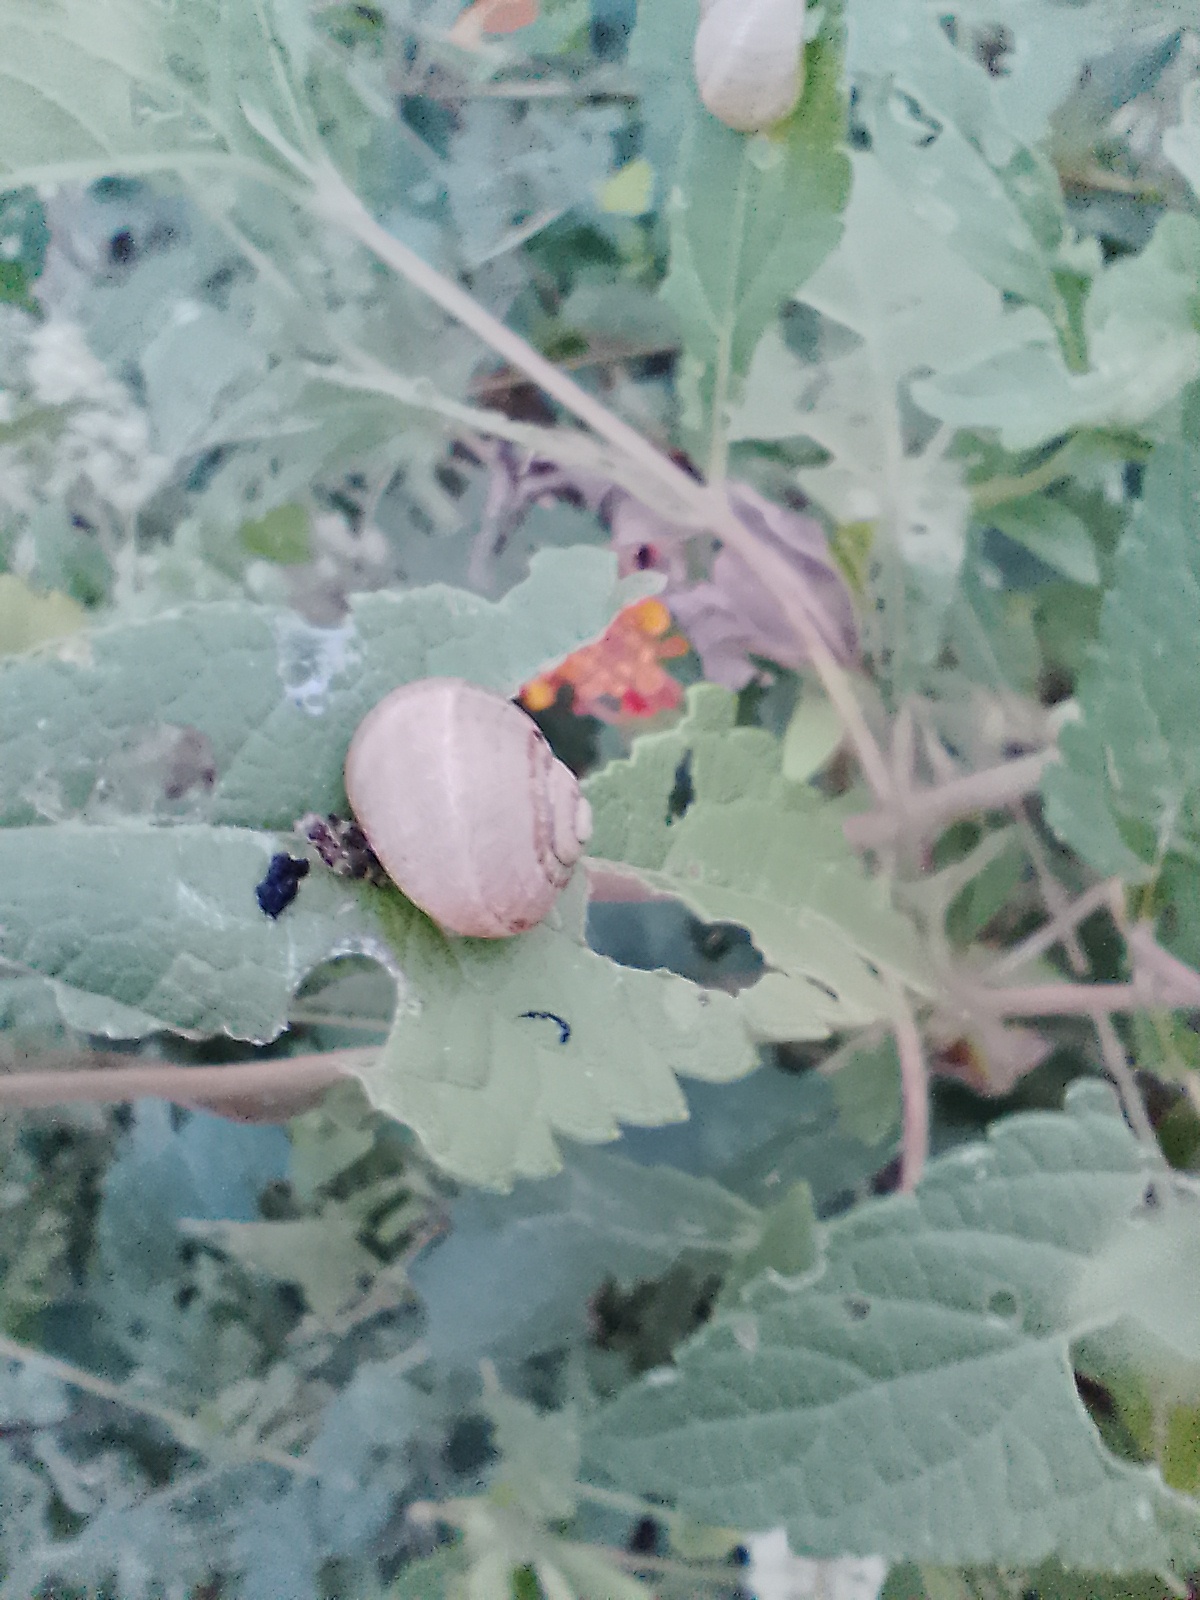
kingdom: Animalia
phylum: Mollusca
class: Gastropoda
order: Stylommatophora
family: Helicidae
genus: Cornu
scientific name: Cornu aspersum
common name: Brown garden snail
